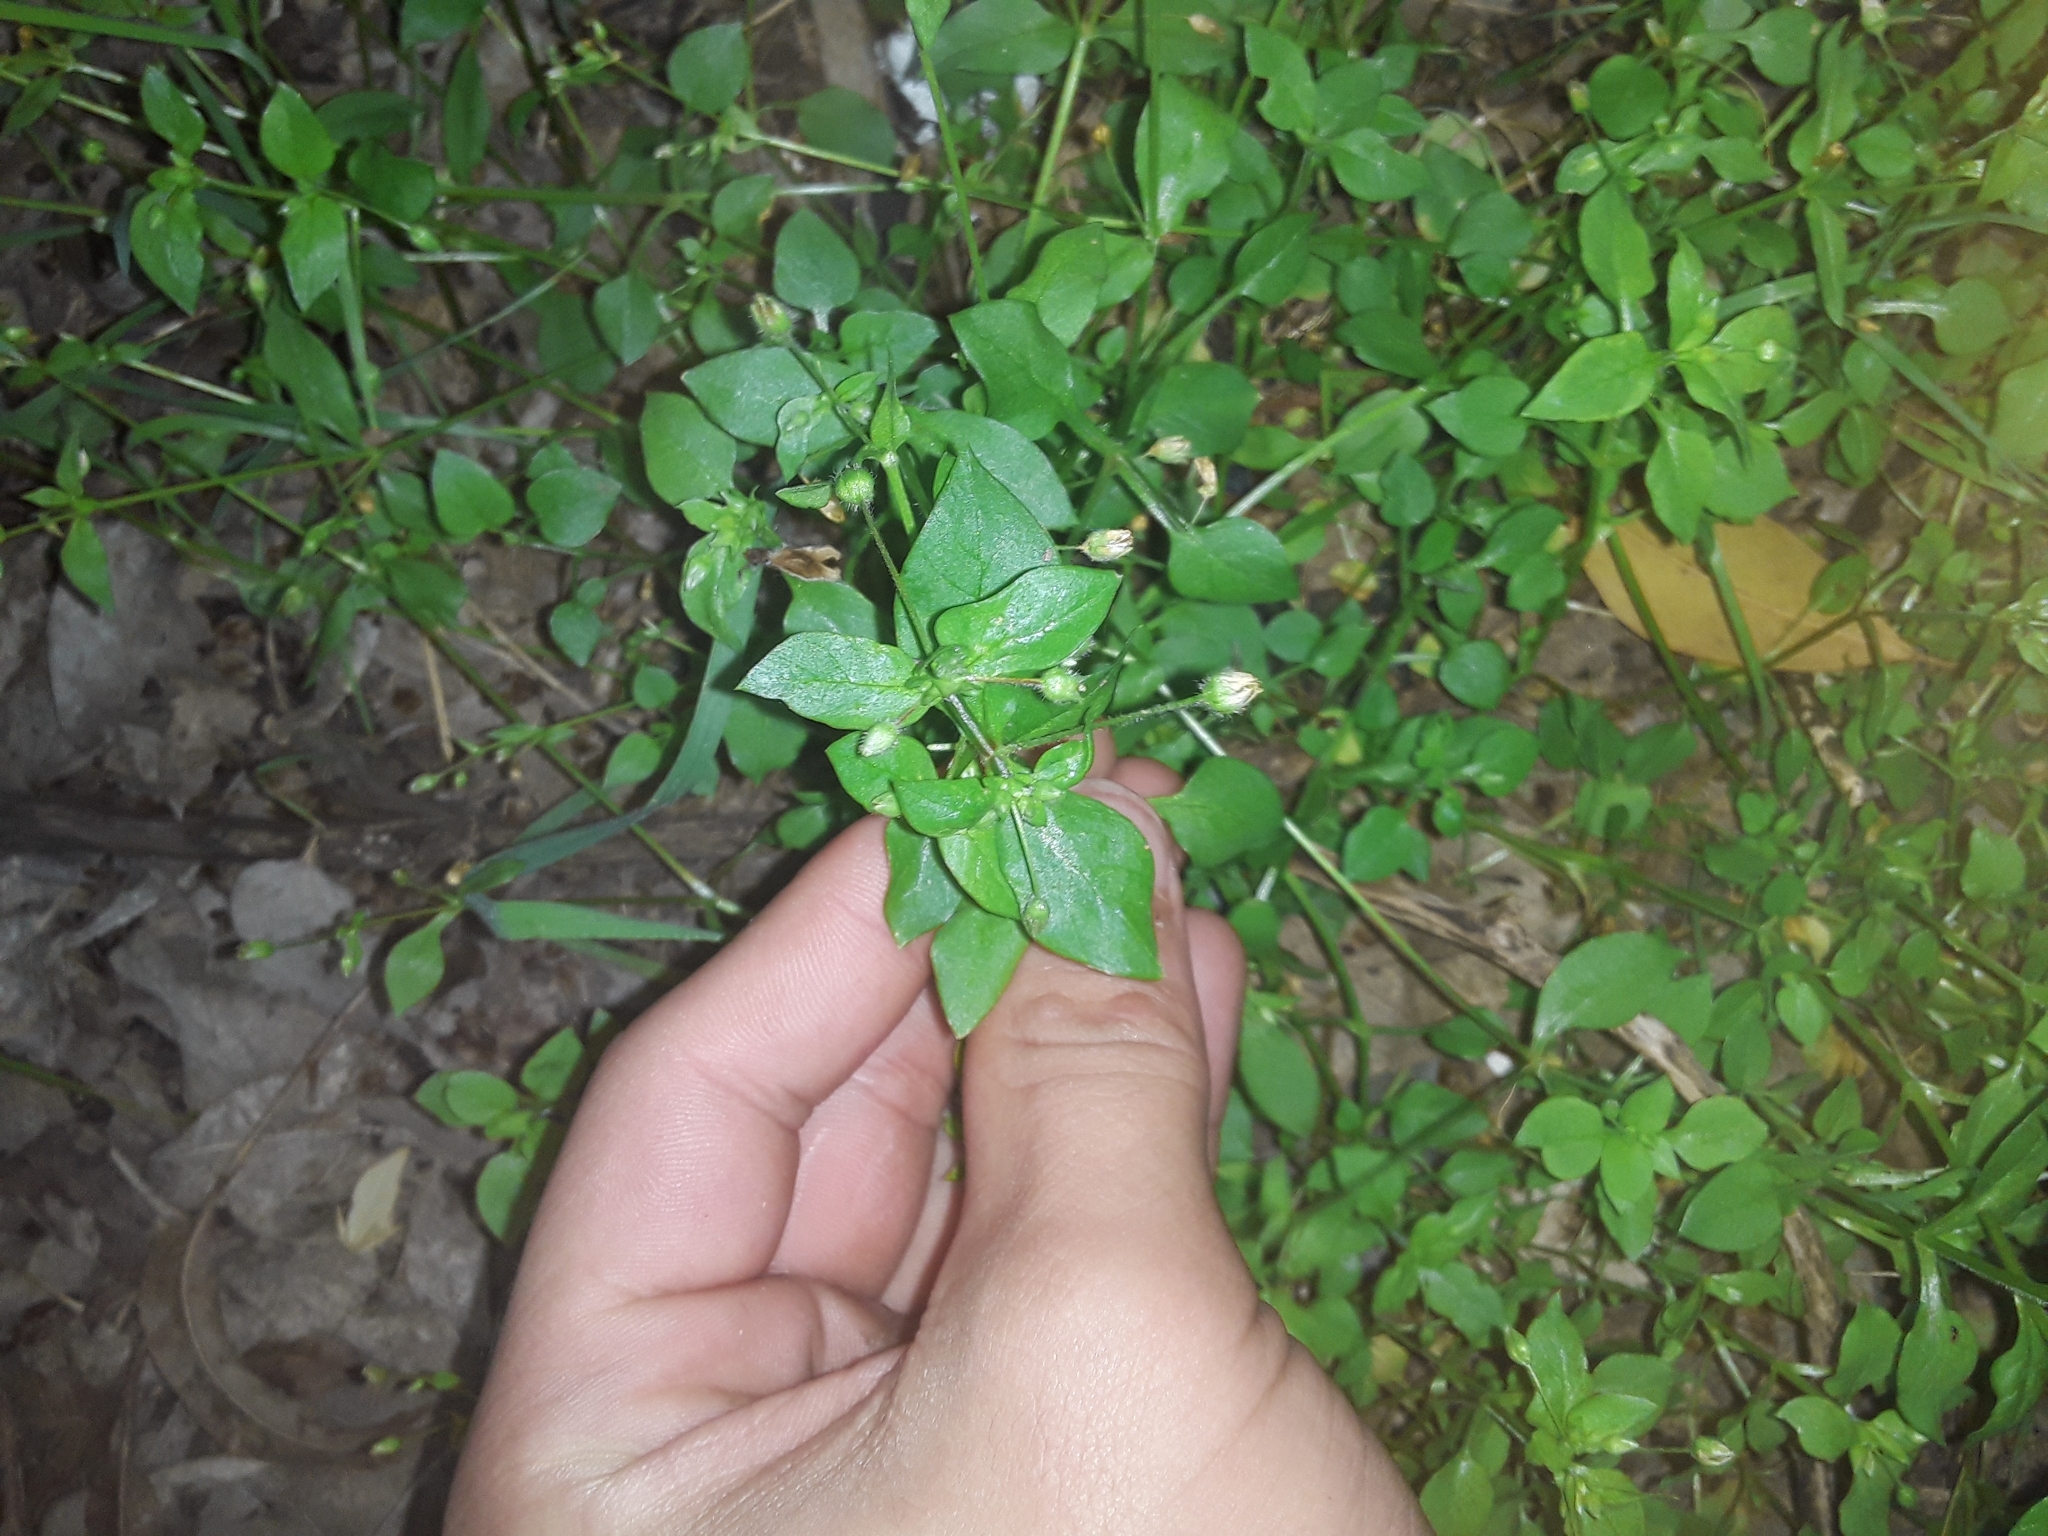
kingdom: Plantae
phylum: Tracheophyta
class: Magnoliopsida
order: Caryophyllales
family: Caryophyllaceae
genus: Stellaria
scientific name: Stellaria media
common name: Common chickweed
